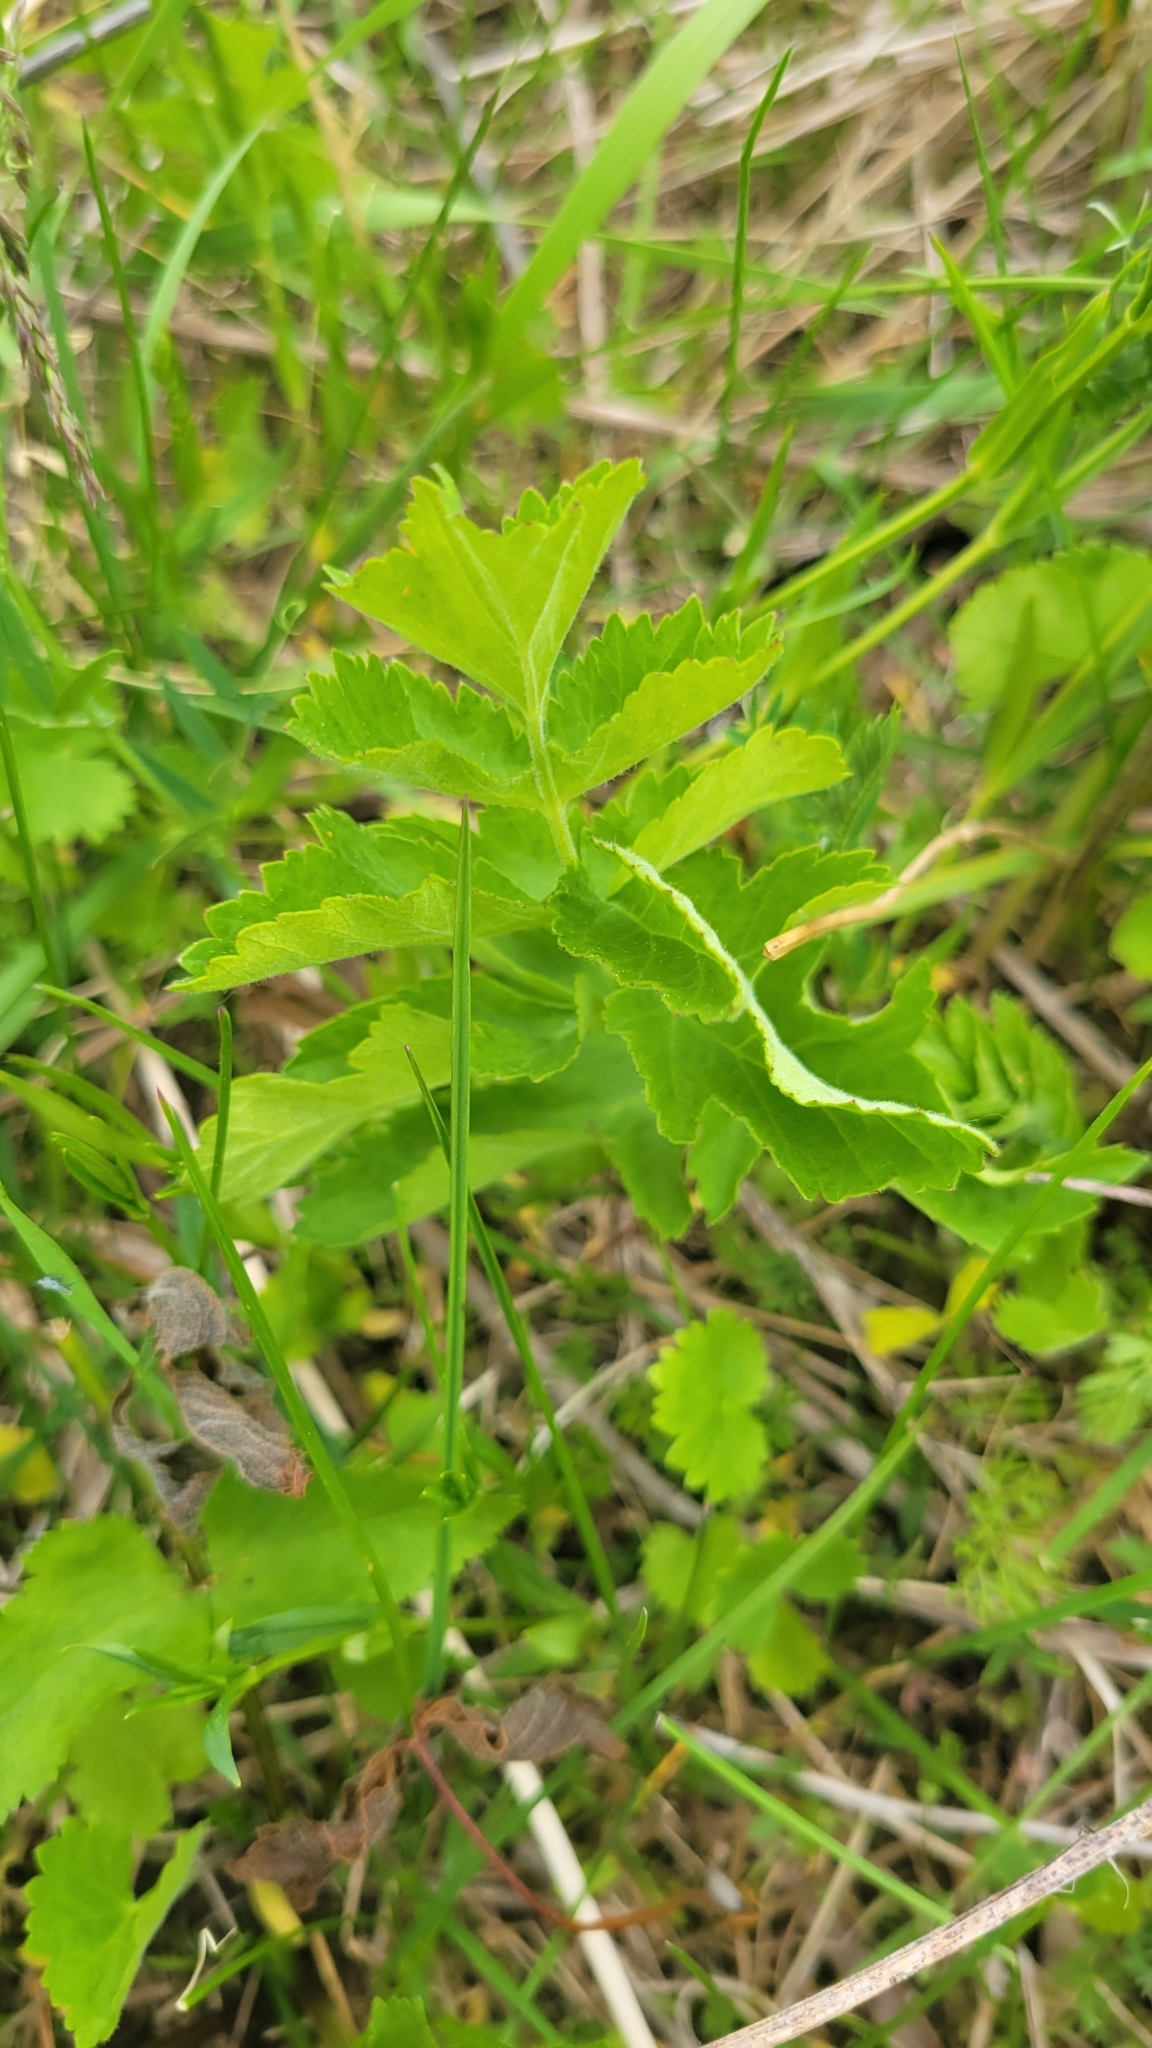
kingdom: Plantae
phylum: Tracheophyta
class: Magnoliopsida
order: Apiales
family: Apiaceae
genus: Pastinaca
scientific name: Pastinaca sativa
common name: Wild parsnip
